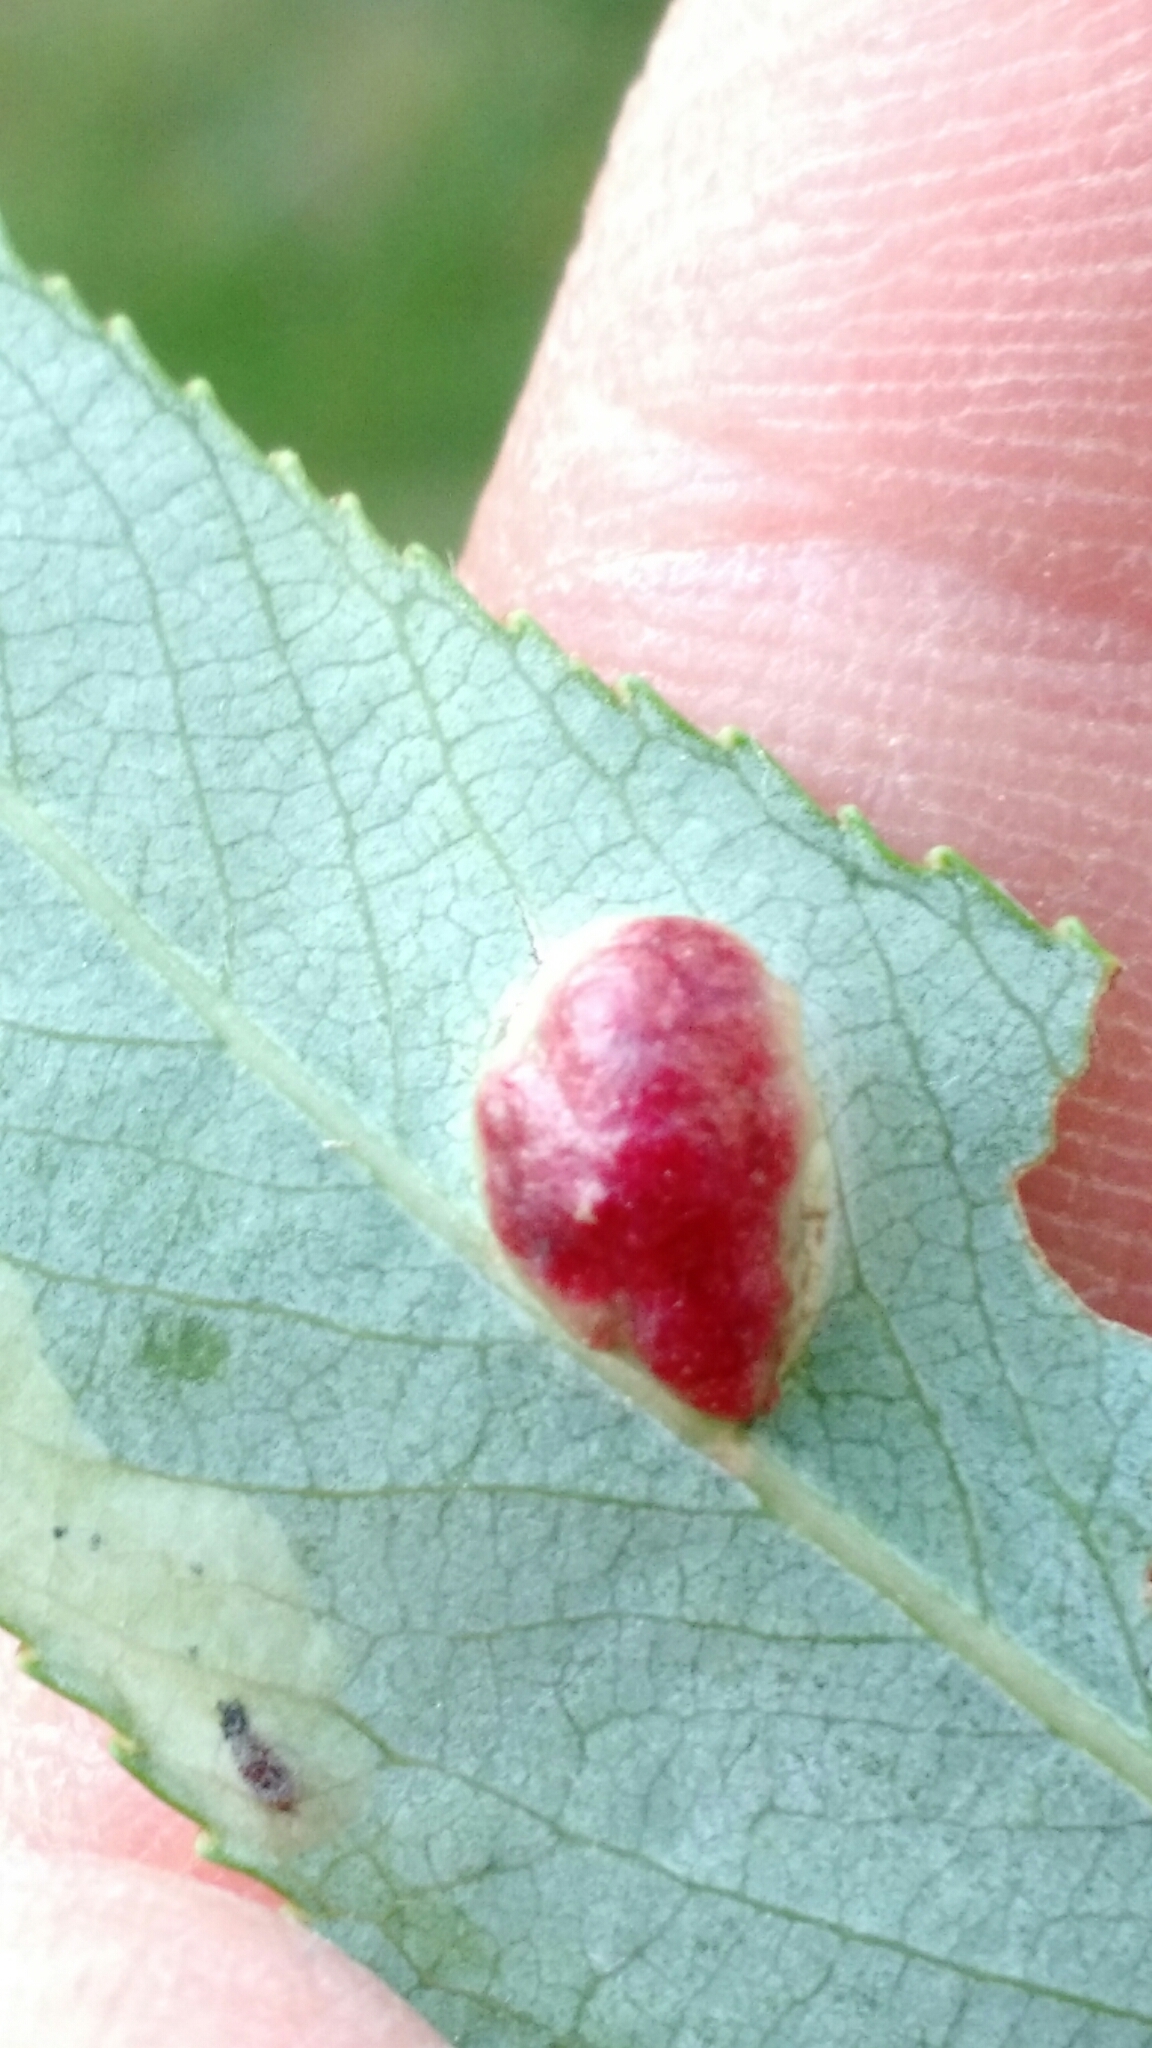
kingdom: Animalia
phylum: Arthropoda
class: Insecta
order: Hymenoptera
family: Tenthredinidae
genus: Pontania
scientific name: Pontania proxima
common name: Common sawfly
